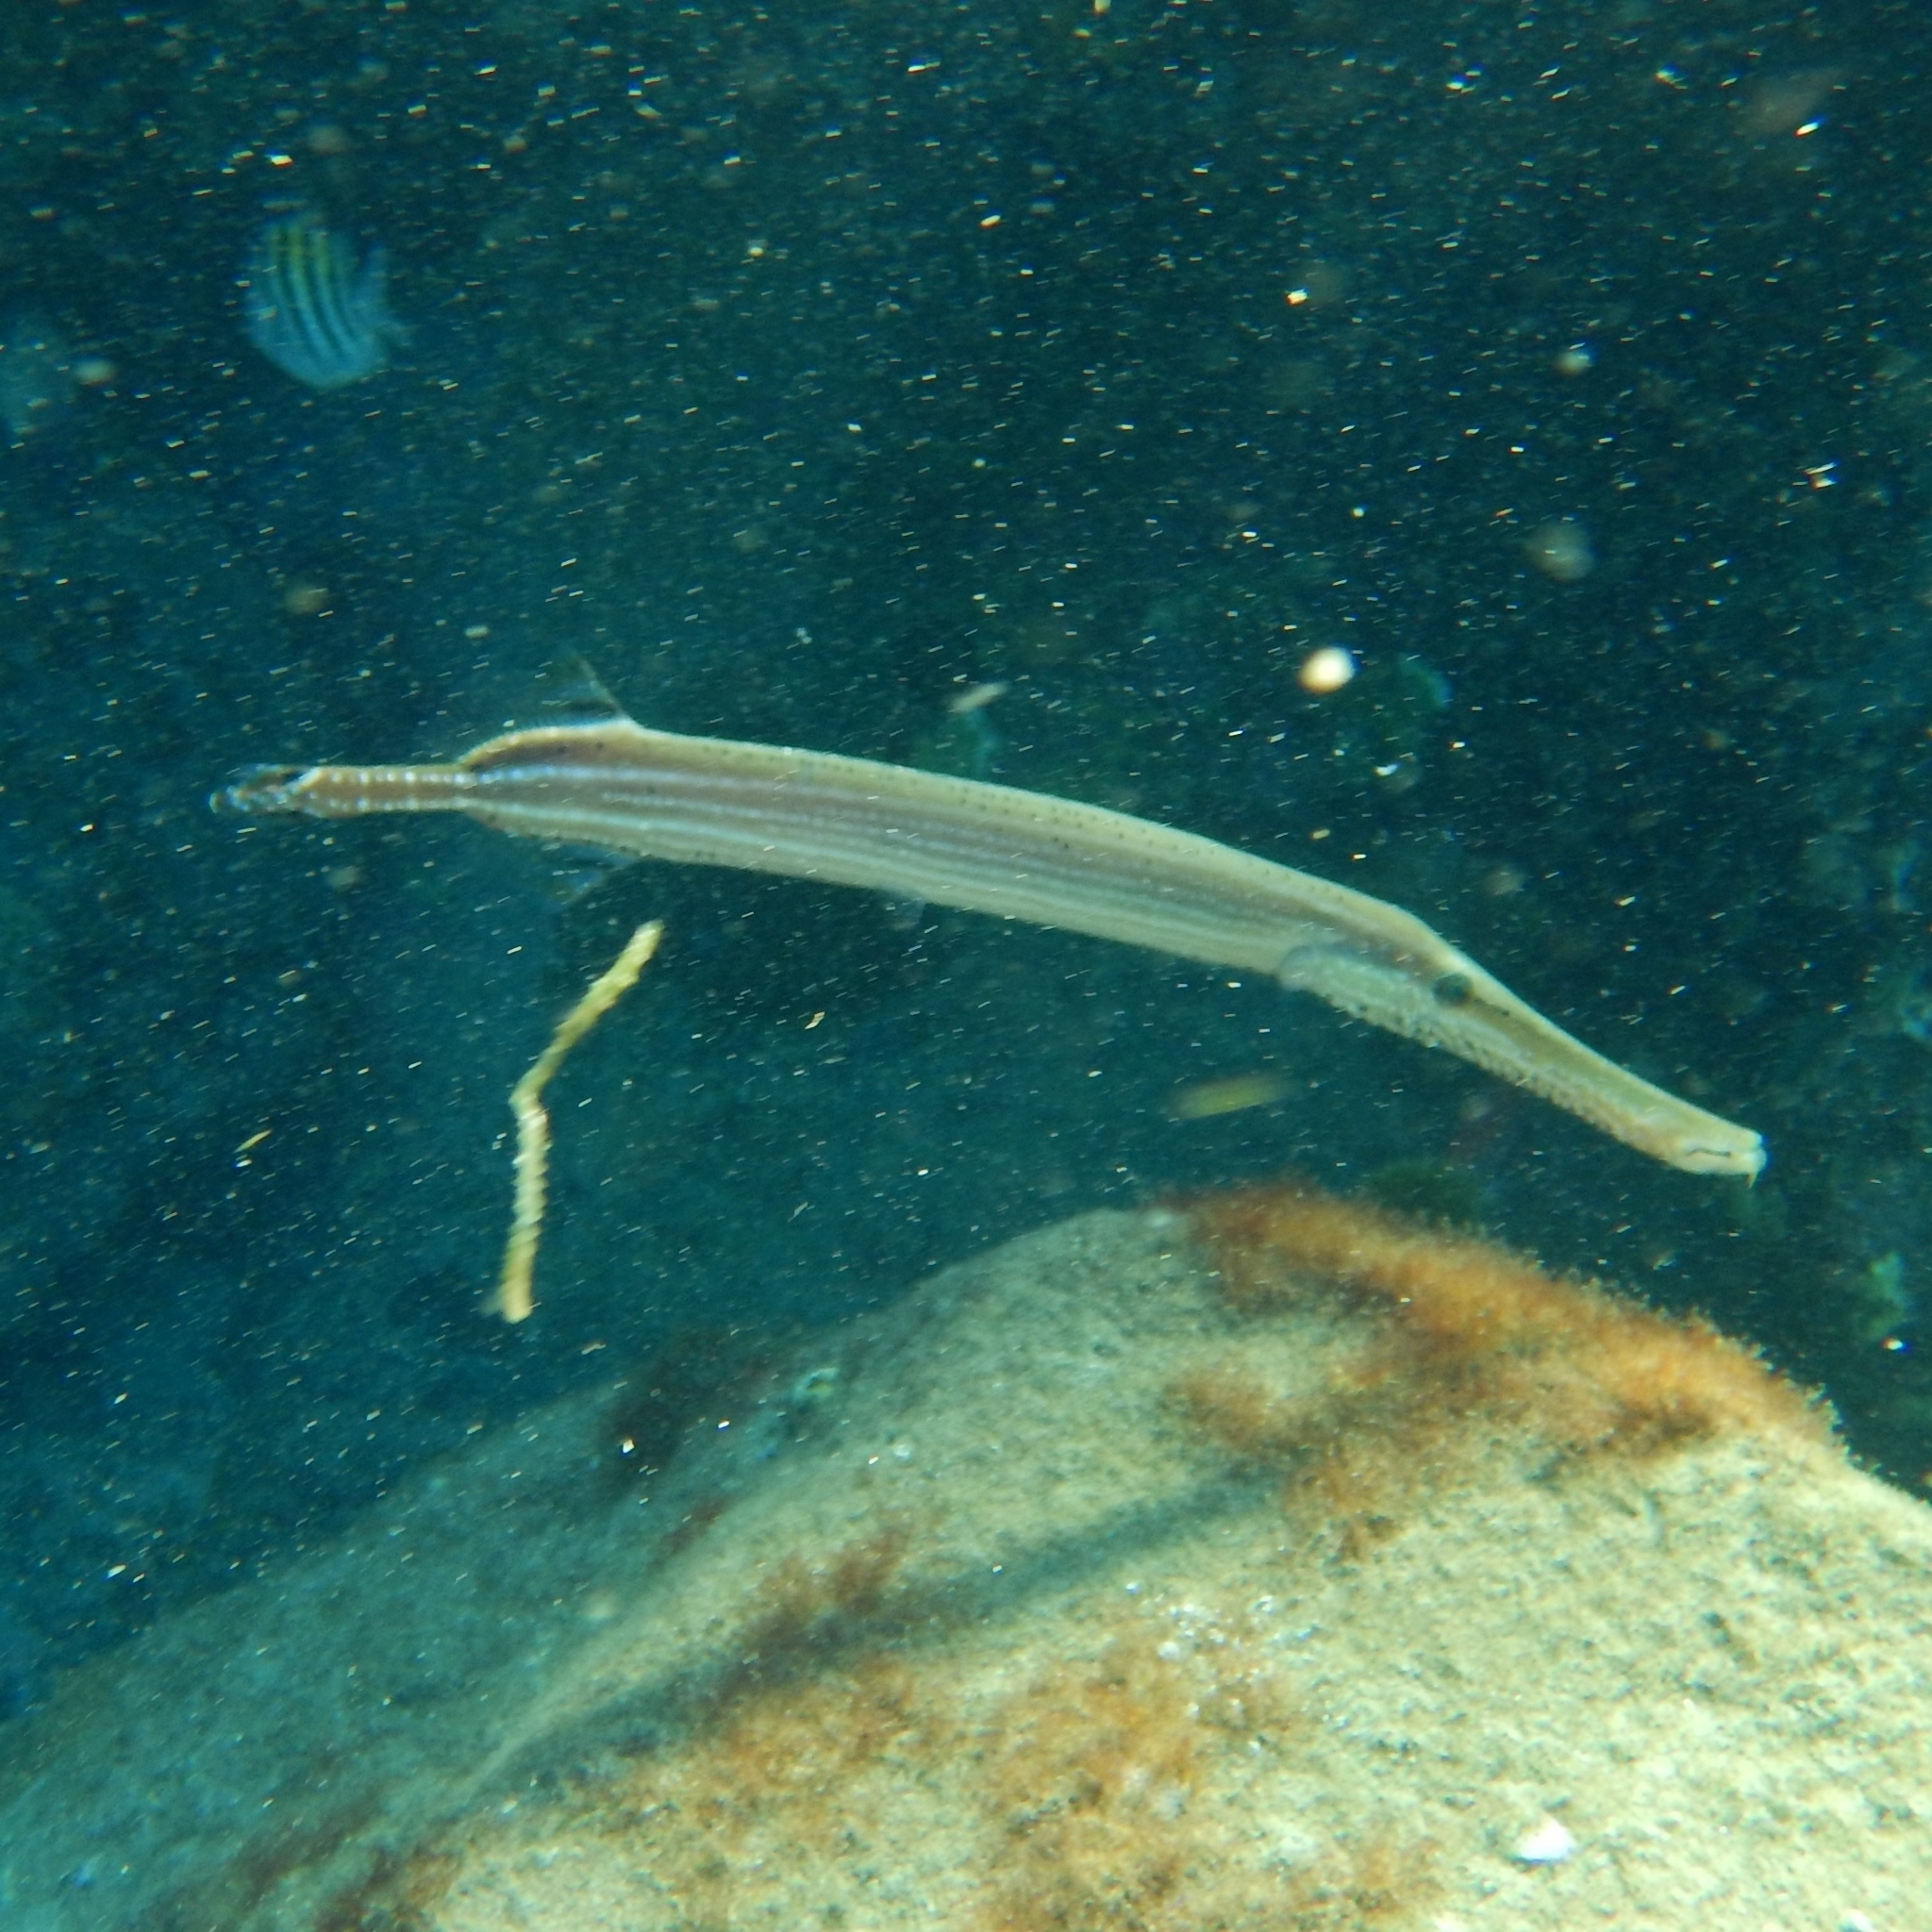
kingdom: Animalia
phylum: Chordata
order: Syngnathiformes
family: Aulostomidae
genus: Aulostomus
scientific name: Aulostomus maculatus
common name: West atlantic trumpetfish
